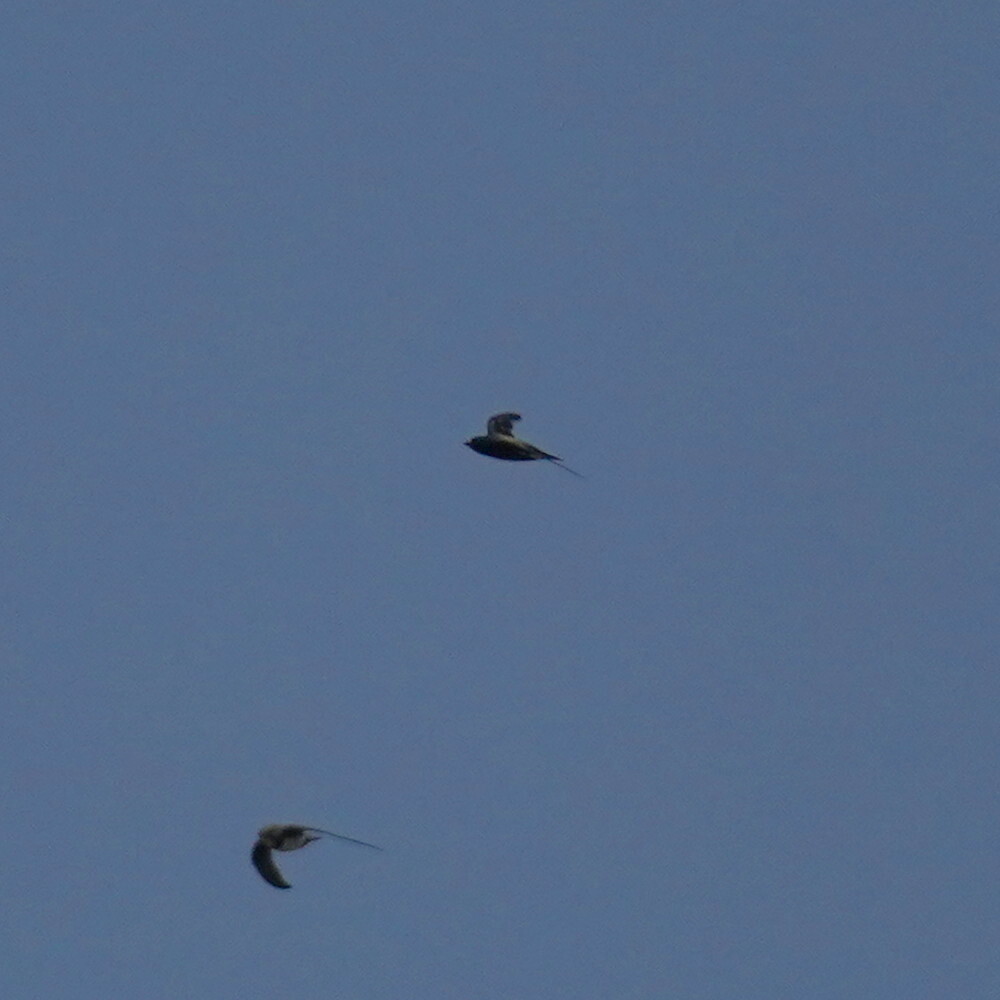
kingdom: Animalia
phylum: Chordata
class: Aves
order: Apodiformes
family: Apodidae
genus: Hirundapus
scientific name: Hirundapus giganteus
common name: Brown-backed needletail
